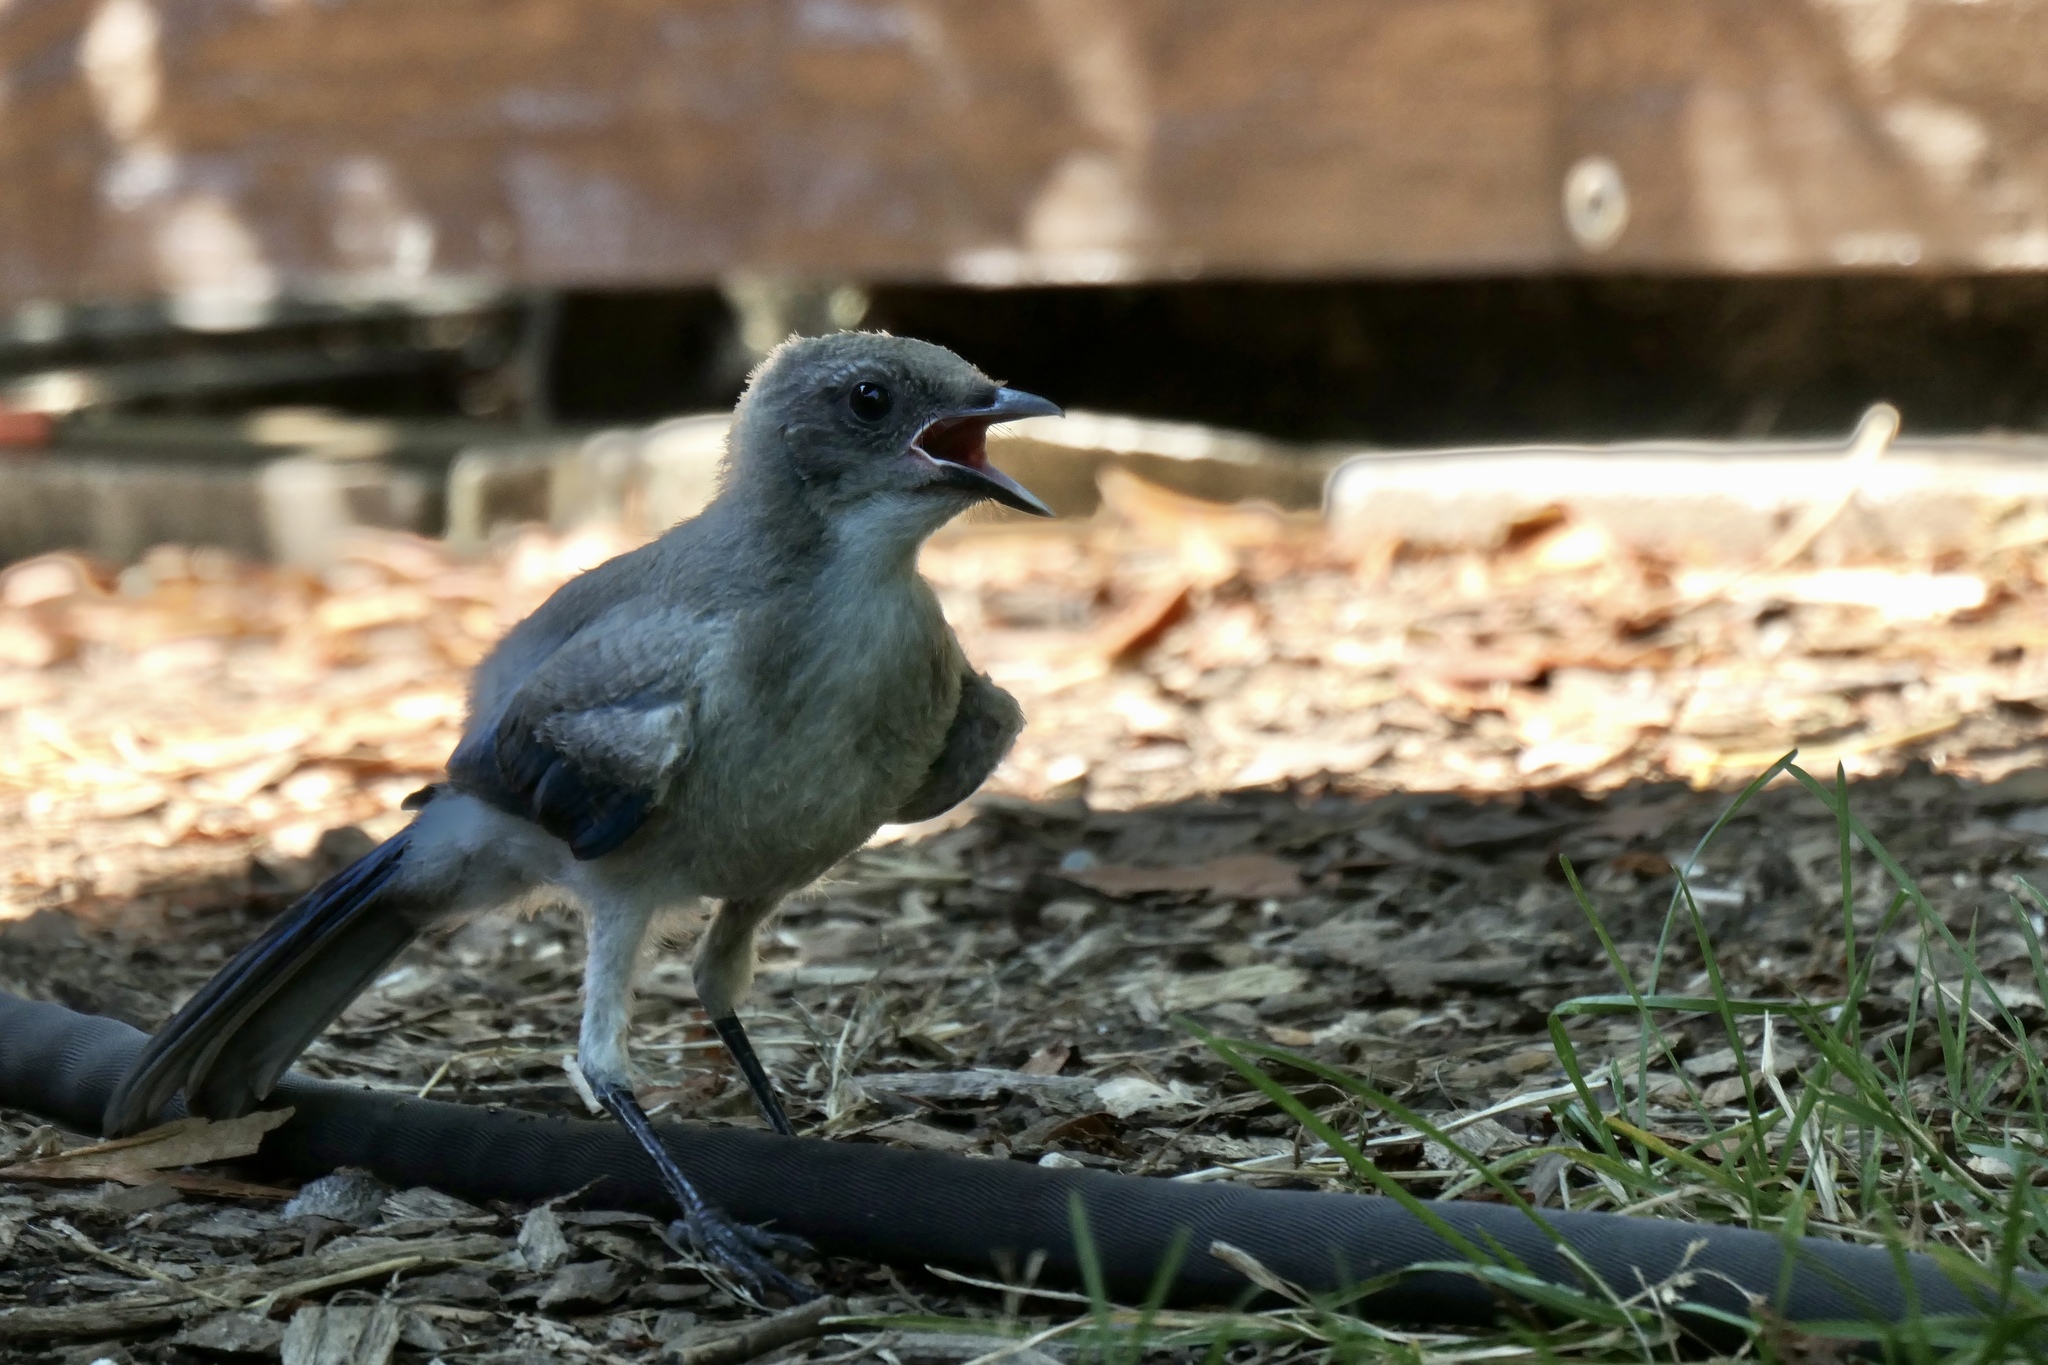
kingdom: Animalia
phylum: Chordata
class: Aves
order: Passeriformes
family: Corvidae
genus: Aphelocoma
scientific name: Aphelocoma californica
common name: California scrub-jay
